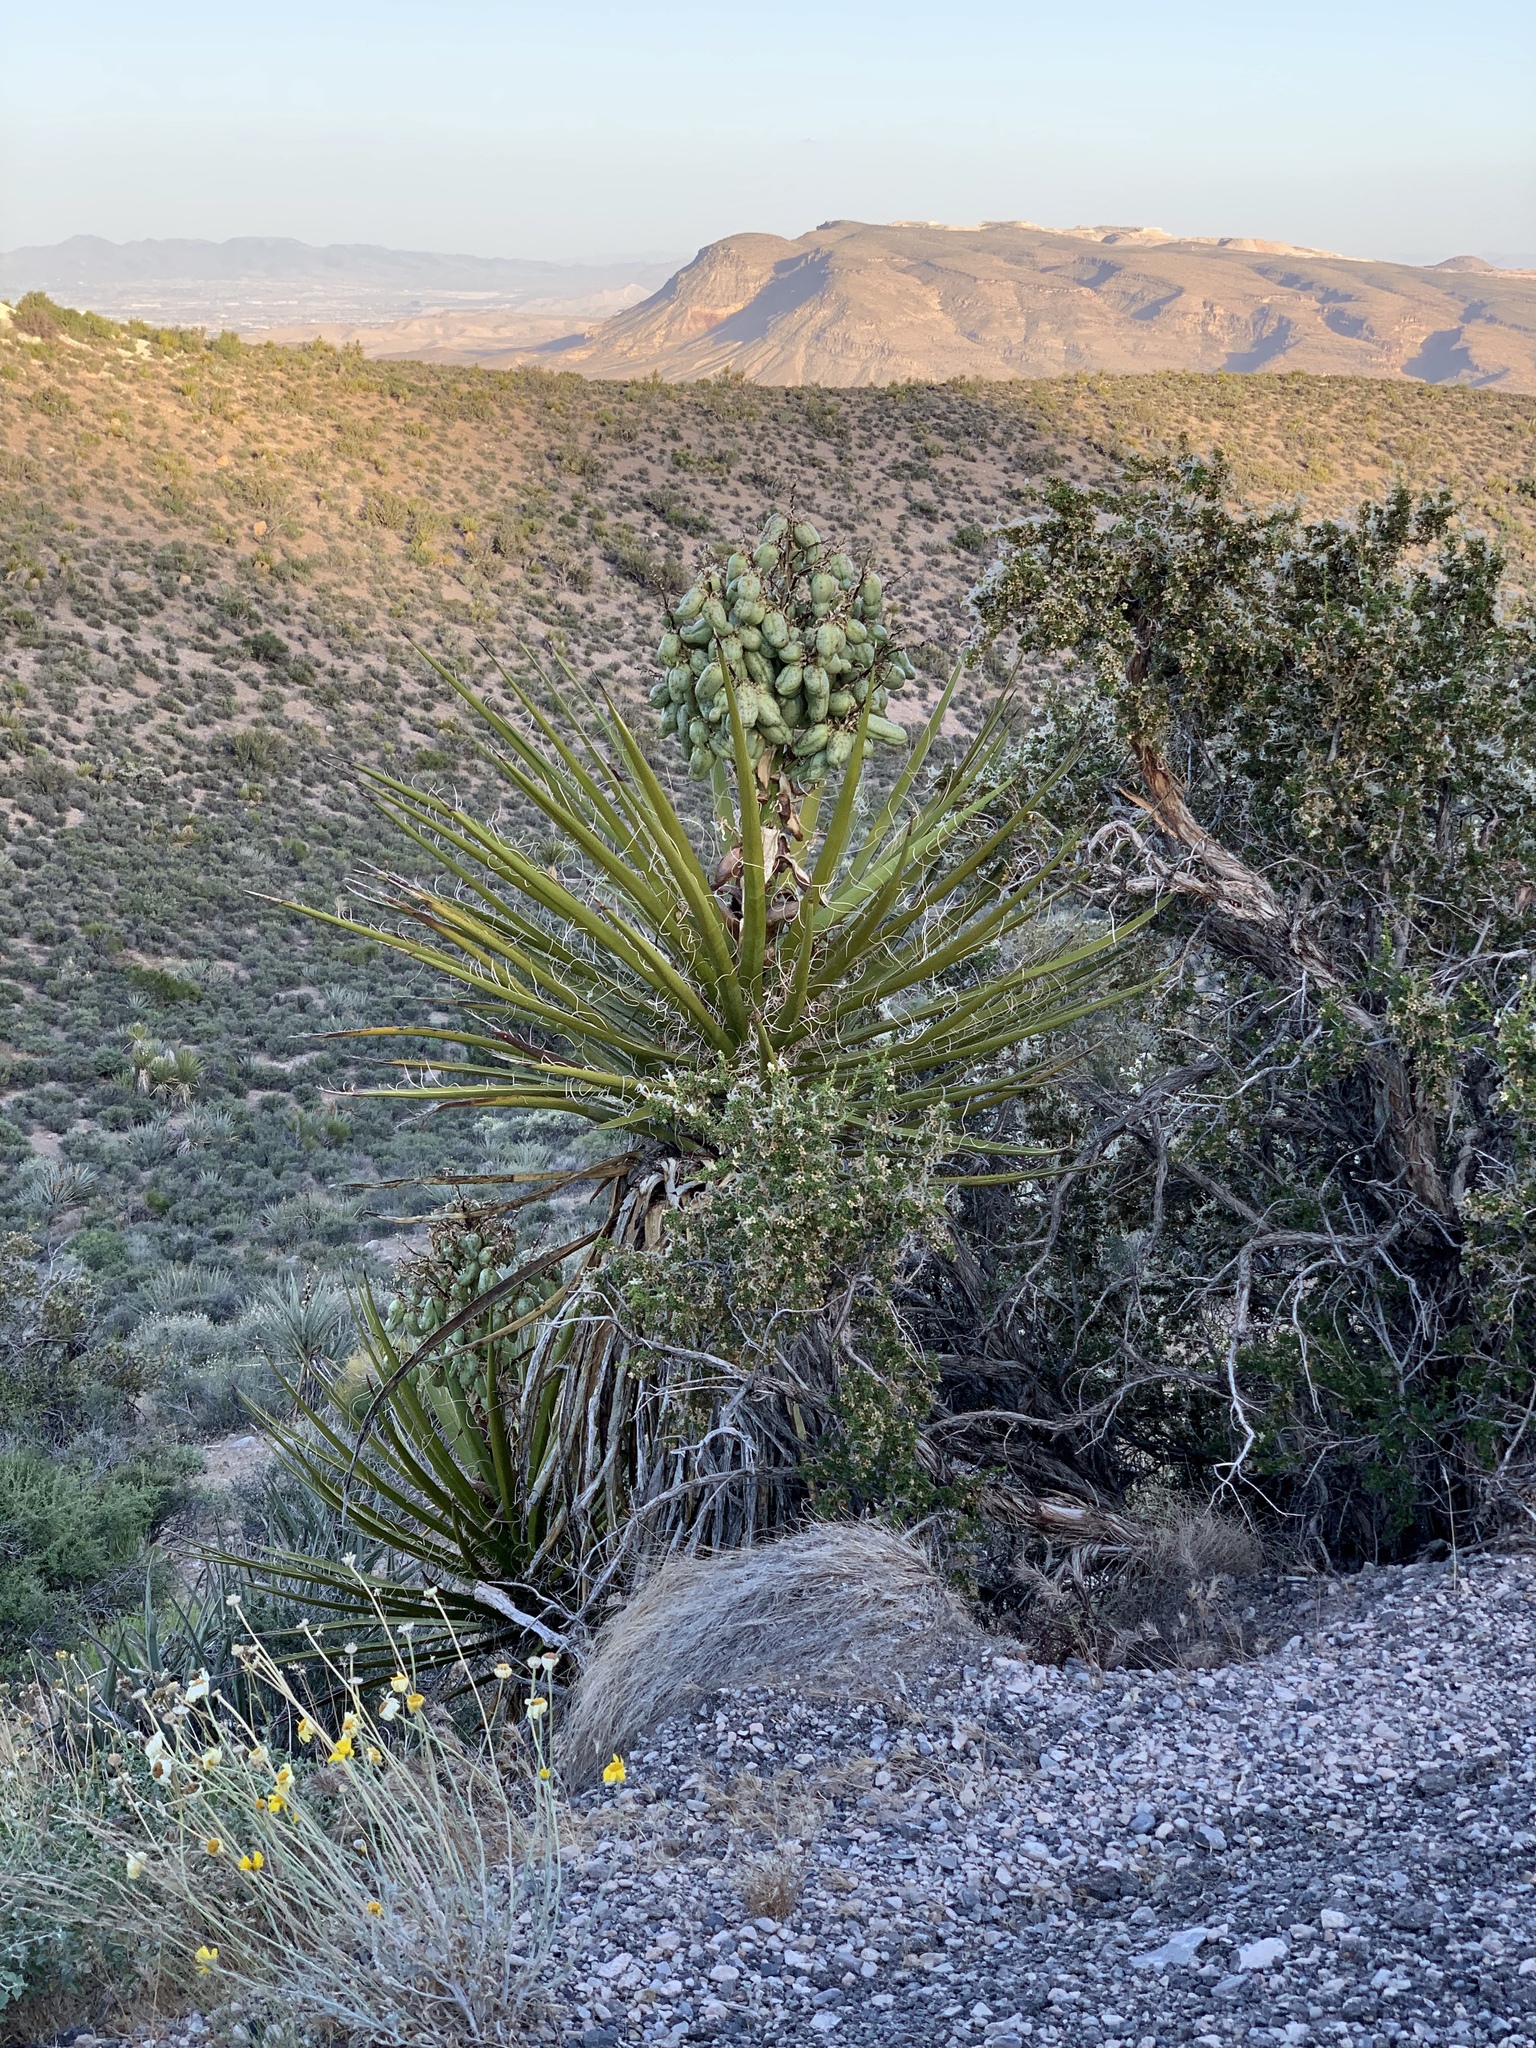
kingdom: Plantae
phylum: Tracheophyta
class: Liliopsida
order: Asparagales
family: Asparagaceae
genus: Yucca
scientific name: Yucca schidigera
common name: Mojave yucca
